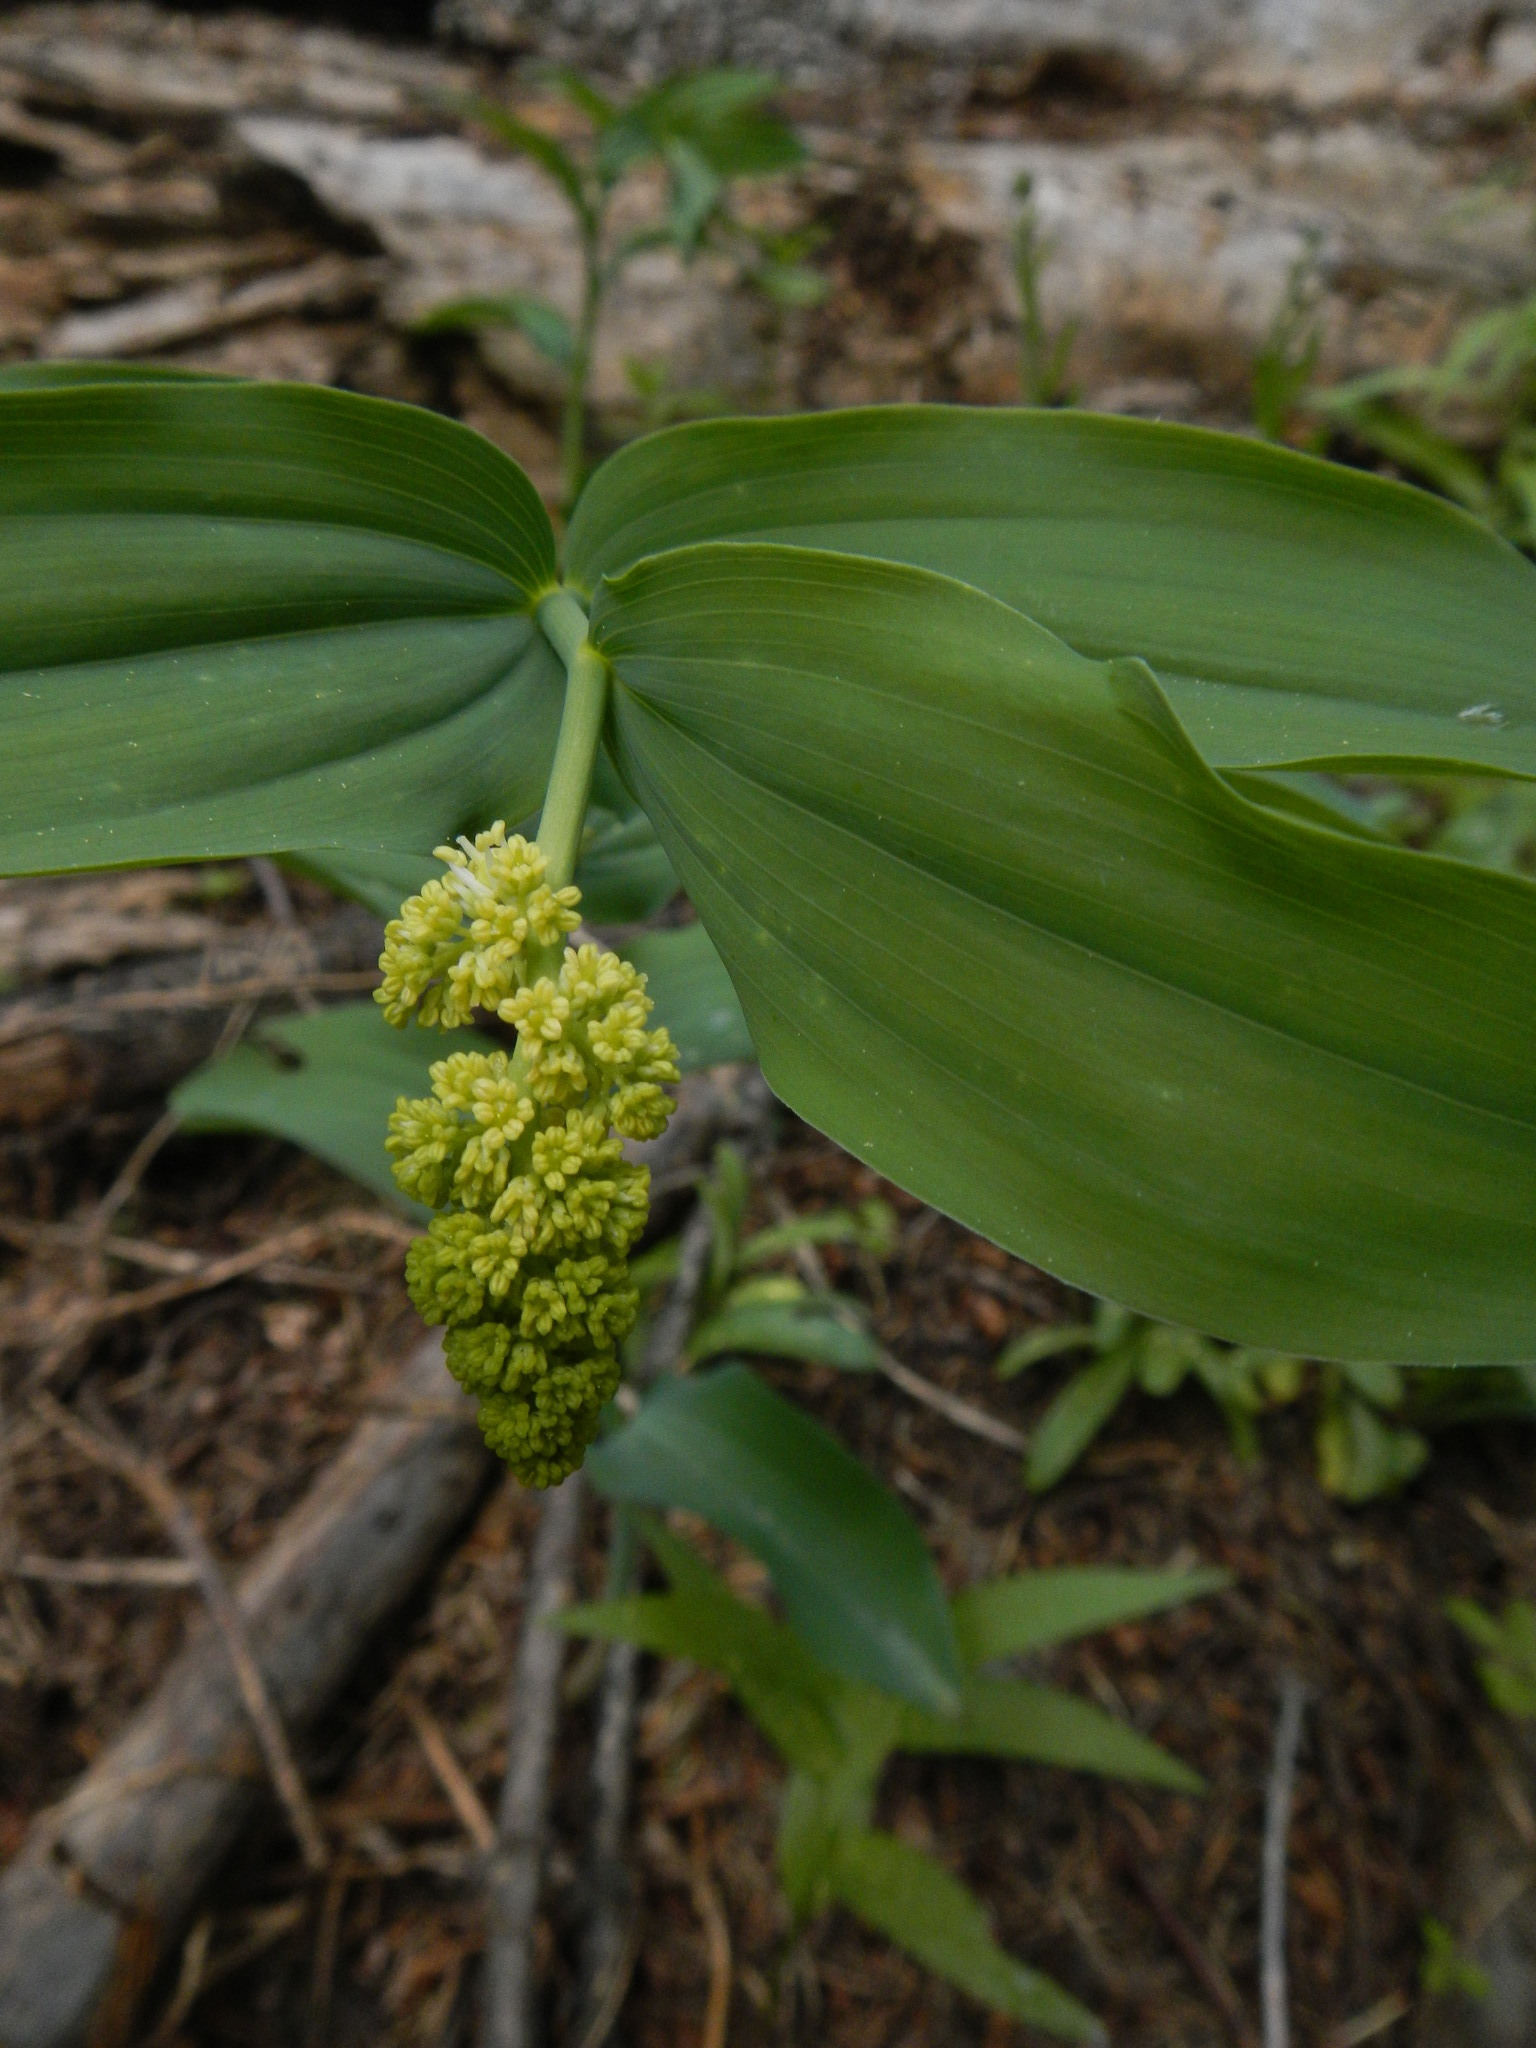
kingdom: Plantae
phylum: Tracheophyta
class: Liliopsida
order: Asparagales
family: Asparagaceae
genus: Maianthemum
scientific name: Maianthemum racemosum
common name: False spikenard
